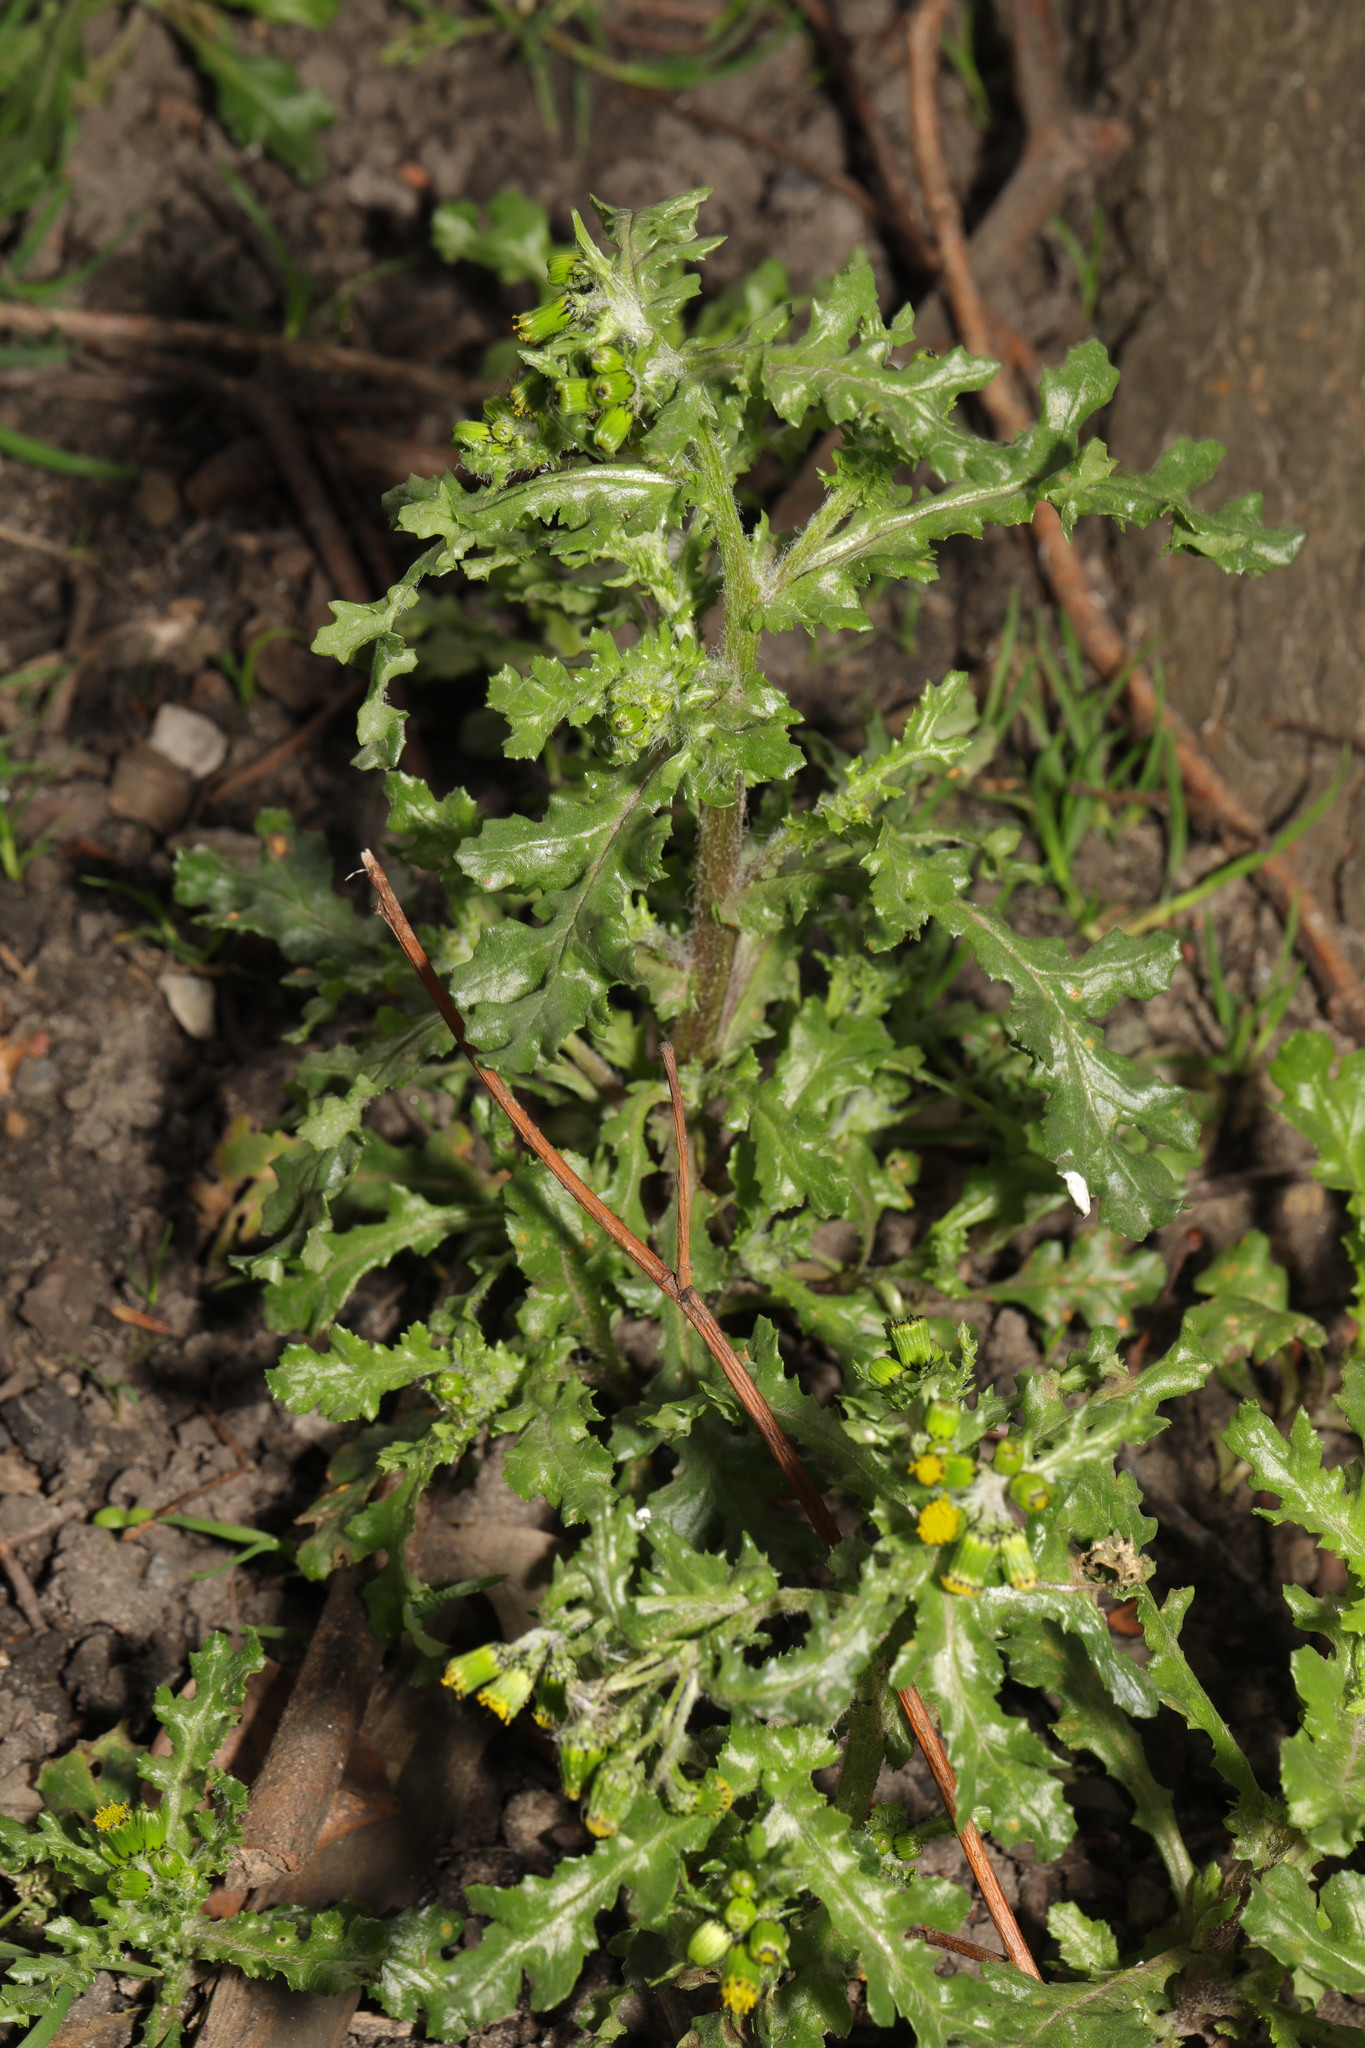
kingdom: Plantae
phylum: Tracheophyta
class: Magnoliopsida
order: Asterales
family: Asteraceae
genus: Senecio
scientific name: Senecio vulgaris
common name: Old-man-in-the-spring
